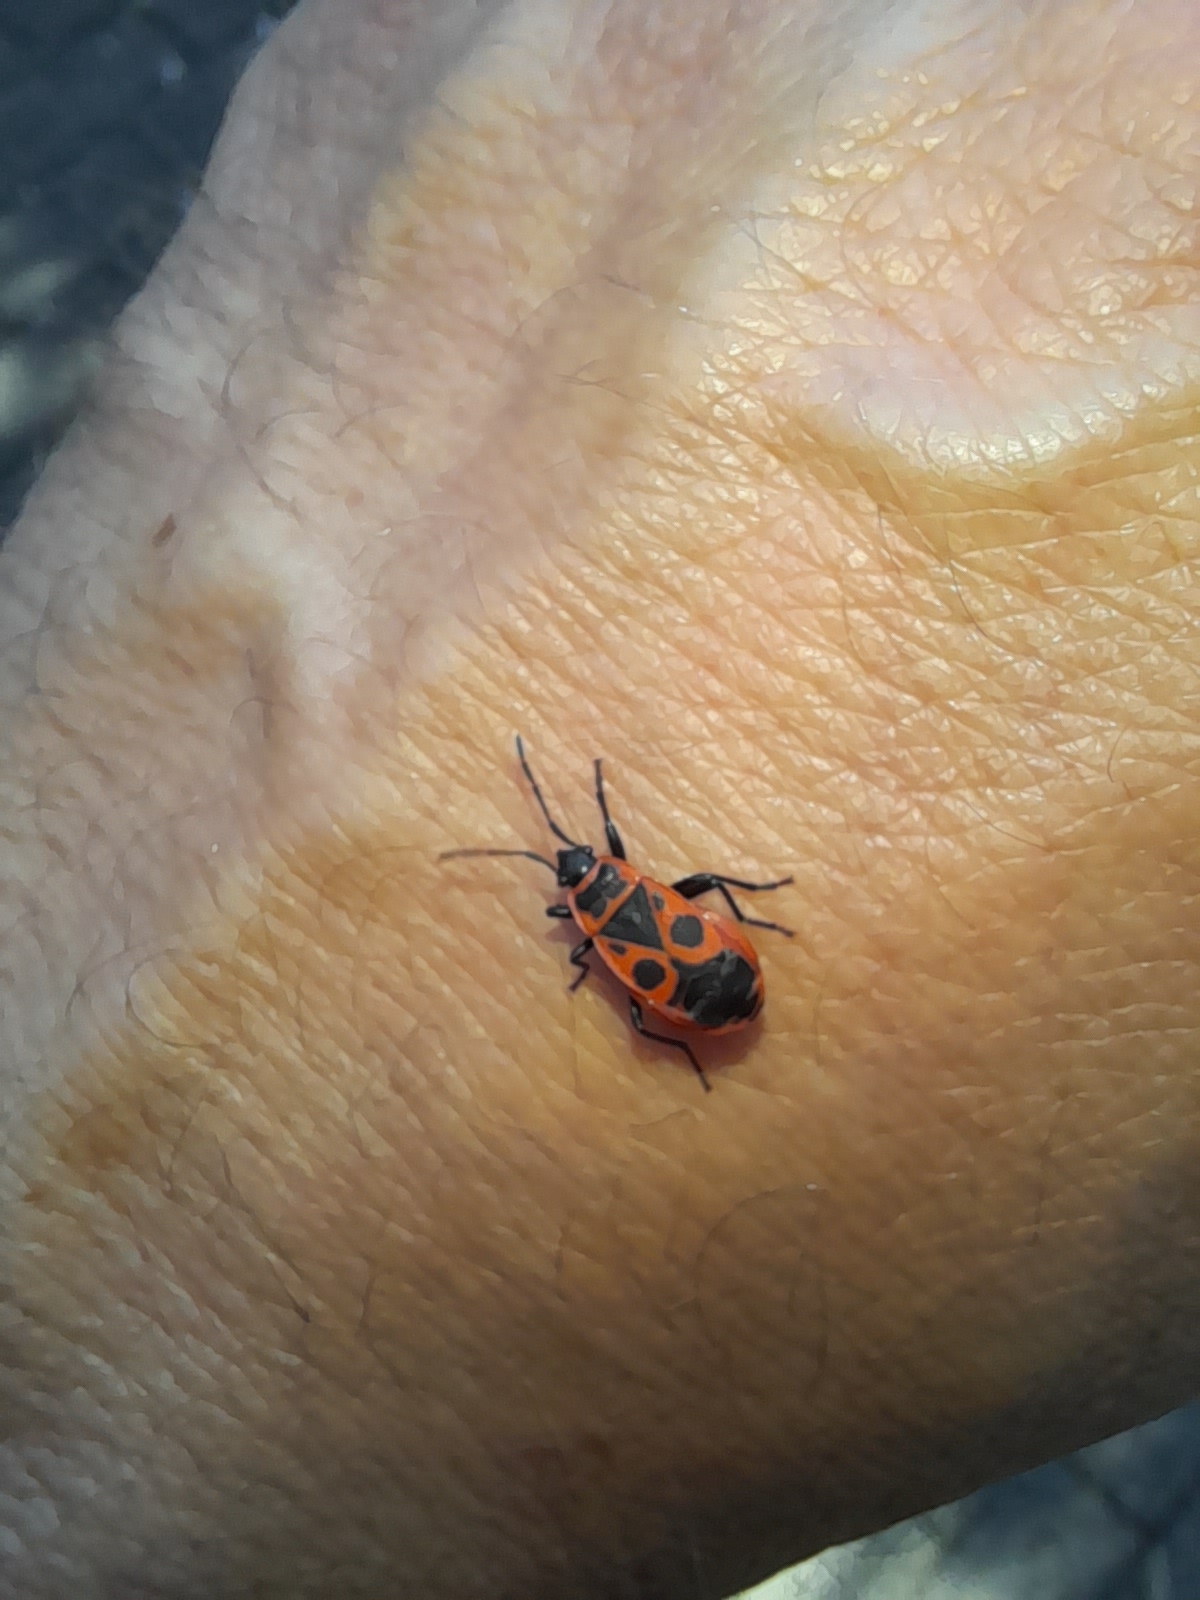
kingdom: Animalia
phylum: Arthropoda
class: Insecta
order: Hemiptera
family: Pyrrhocoridae
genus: Pyrrhocoris
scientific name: Pyrrhocoris apterus
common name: Firebug
